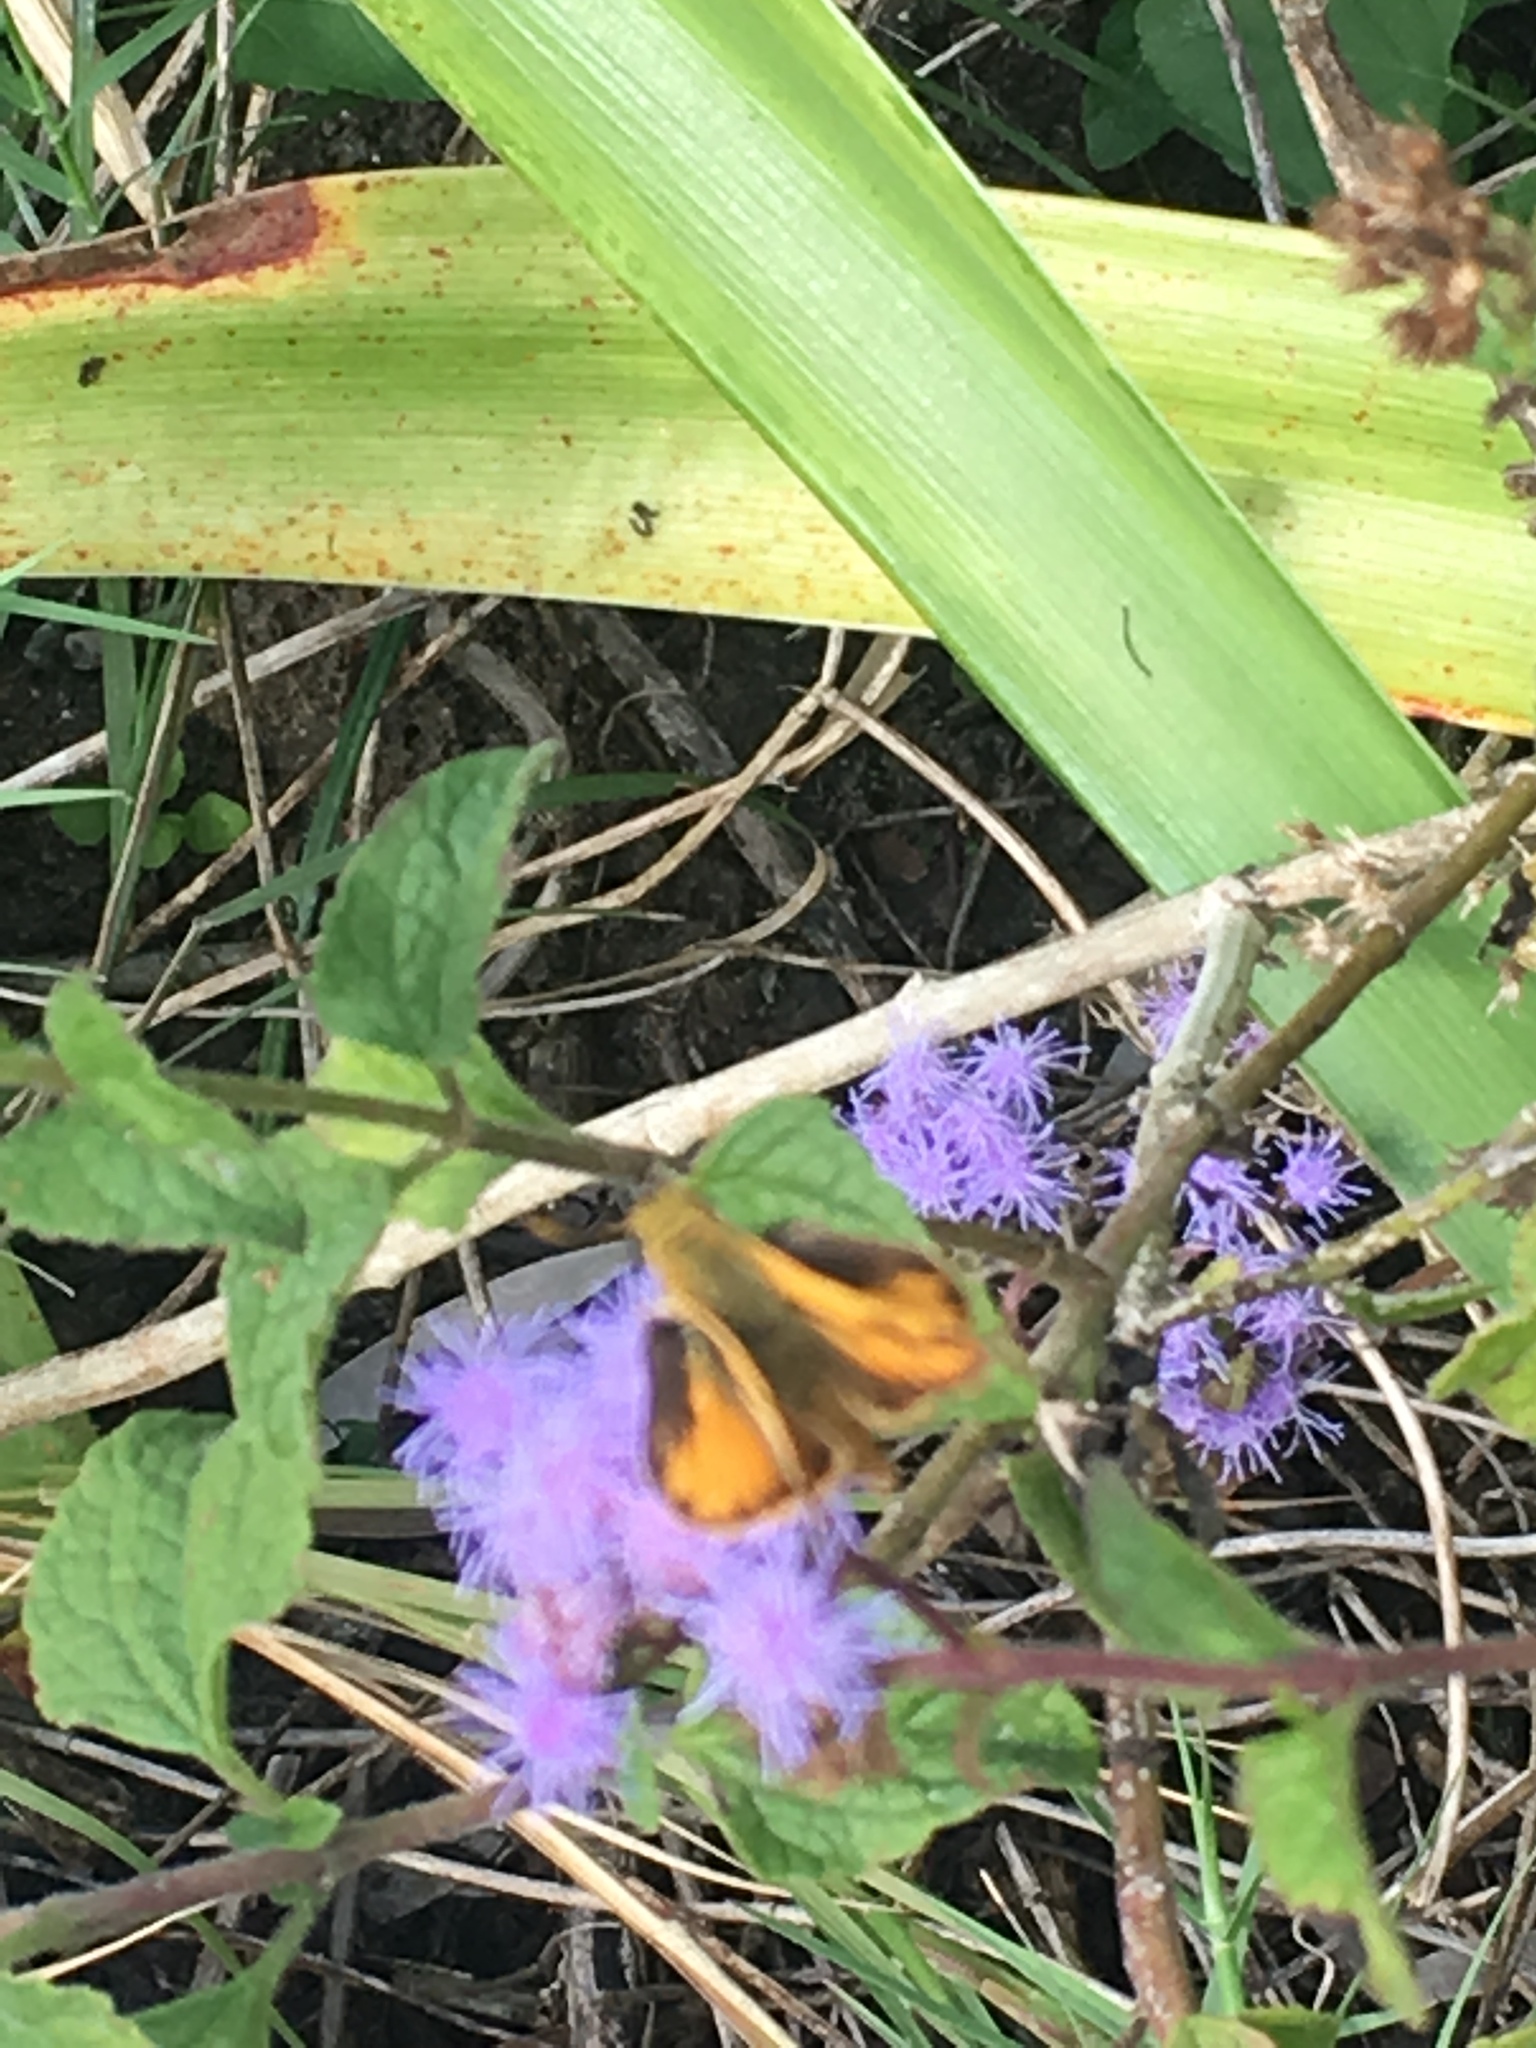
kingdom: Animalia
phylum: Arthropoda
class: Insecta
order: Lepidoptera
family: Hesperiidae
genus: Hylephila
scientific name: Hylephila phyleus
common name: Fiery skipper
